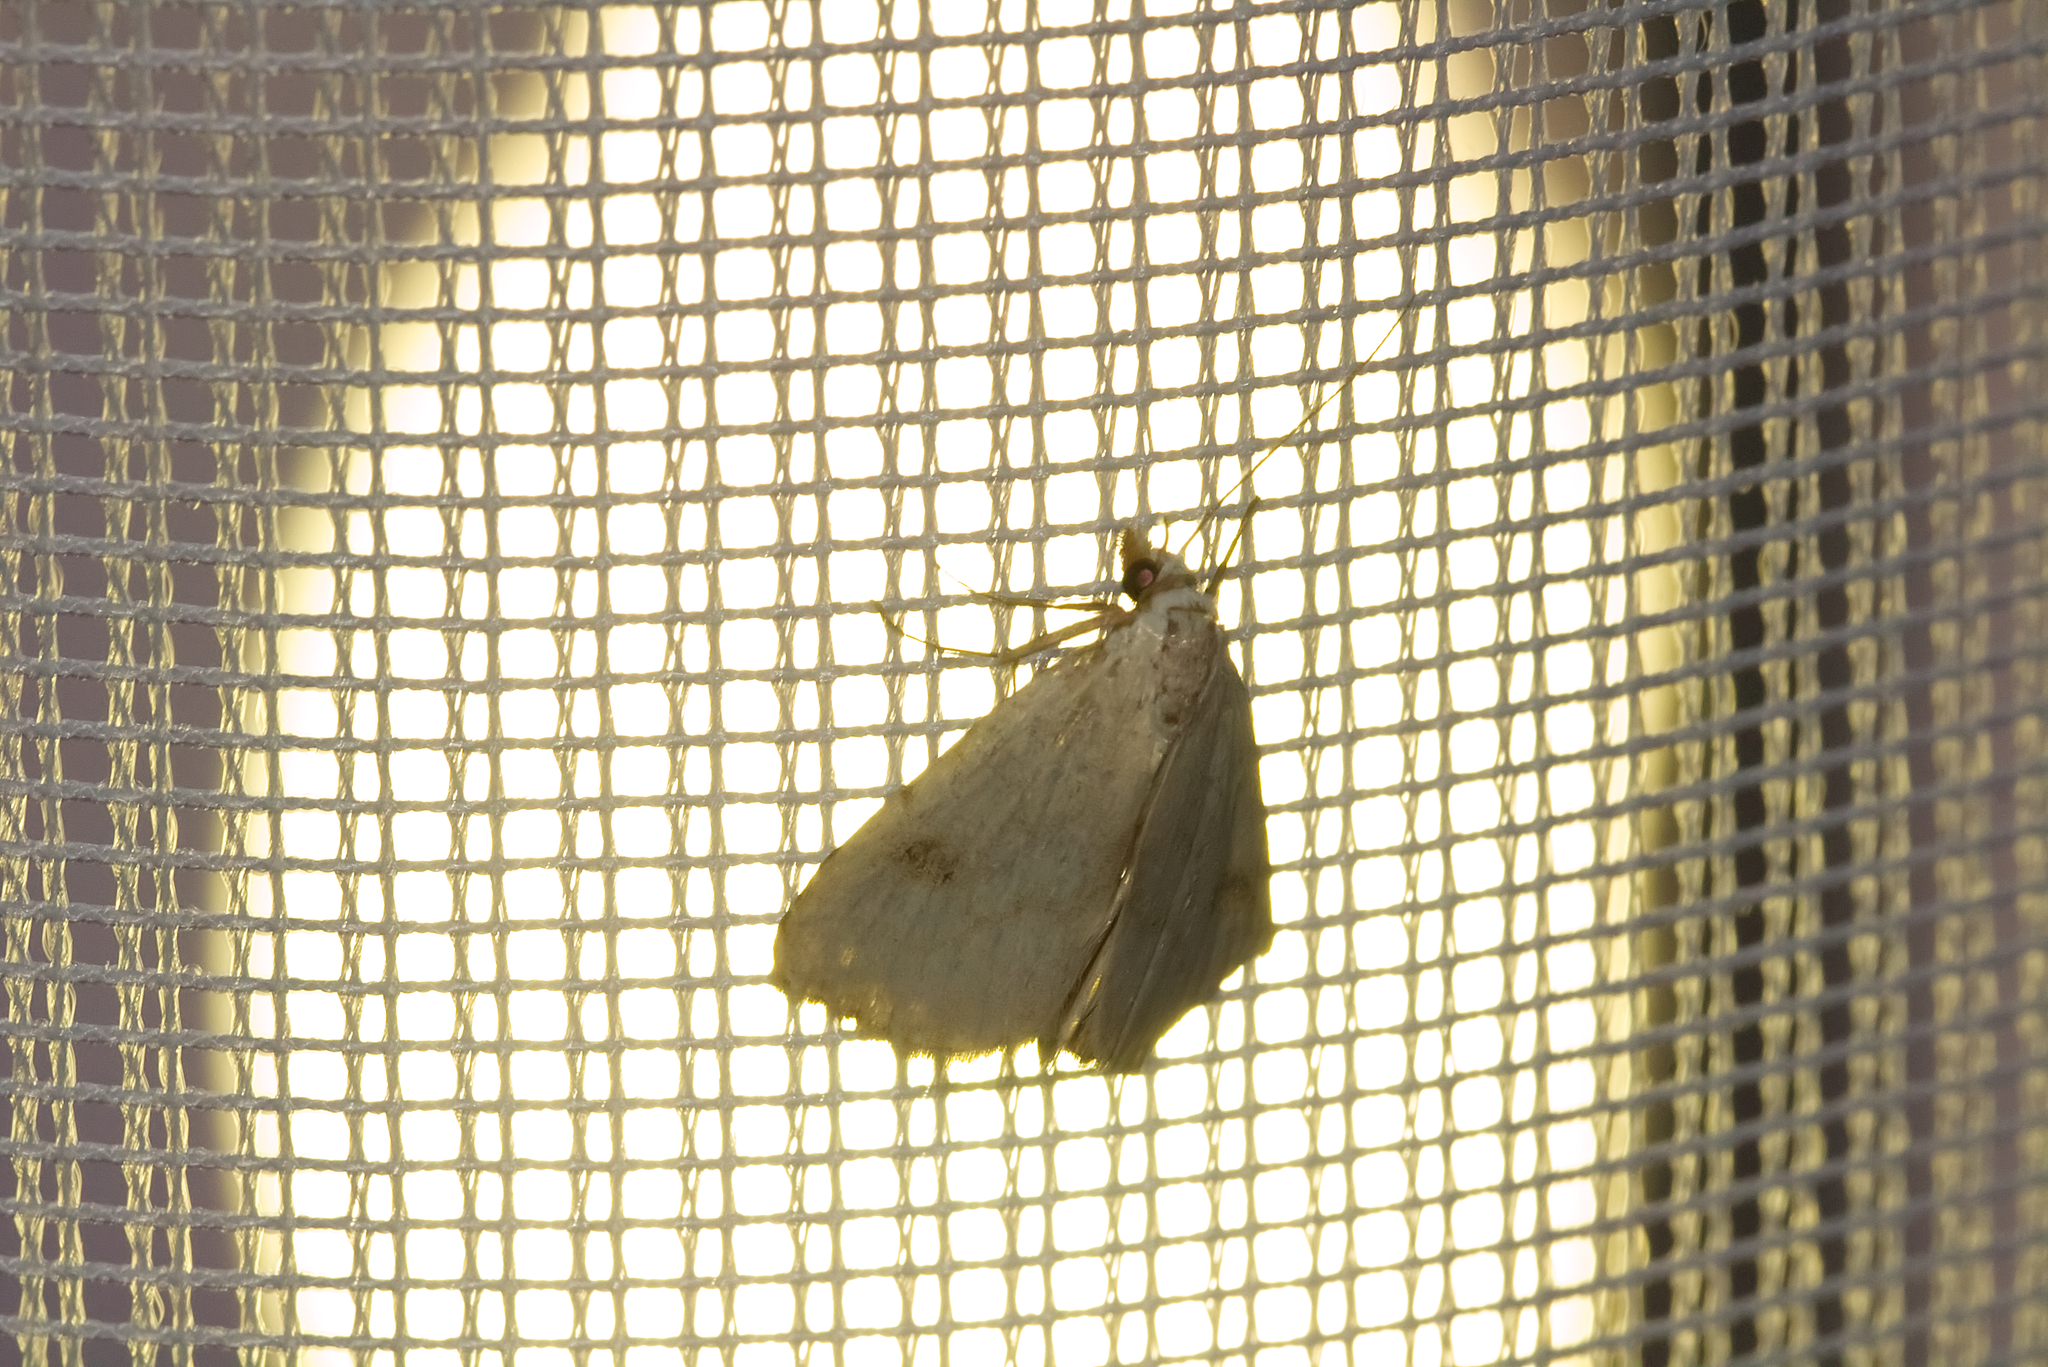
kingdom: Animalia
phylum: Arthropoda
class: Insecta
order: Lepidoptera
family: Erebidae
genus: Rivula
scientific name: Rivula sericealis
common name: Straw dot
